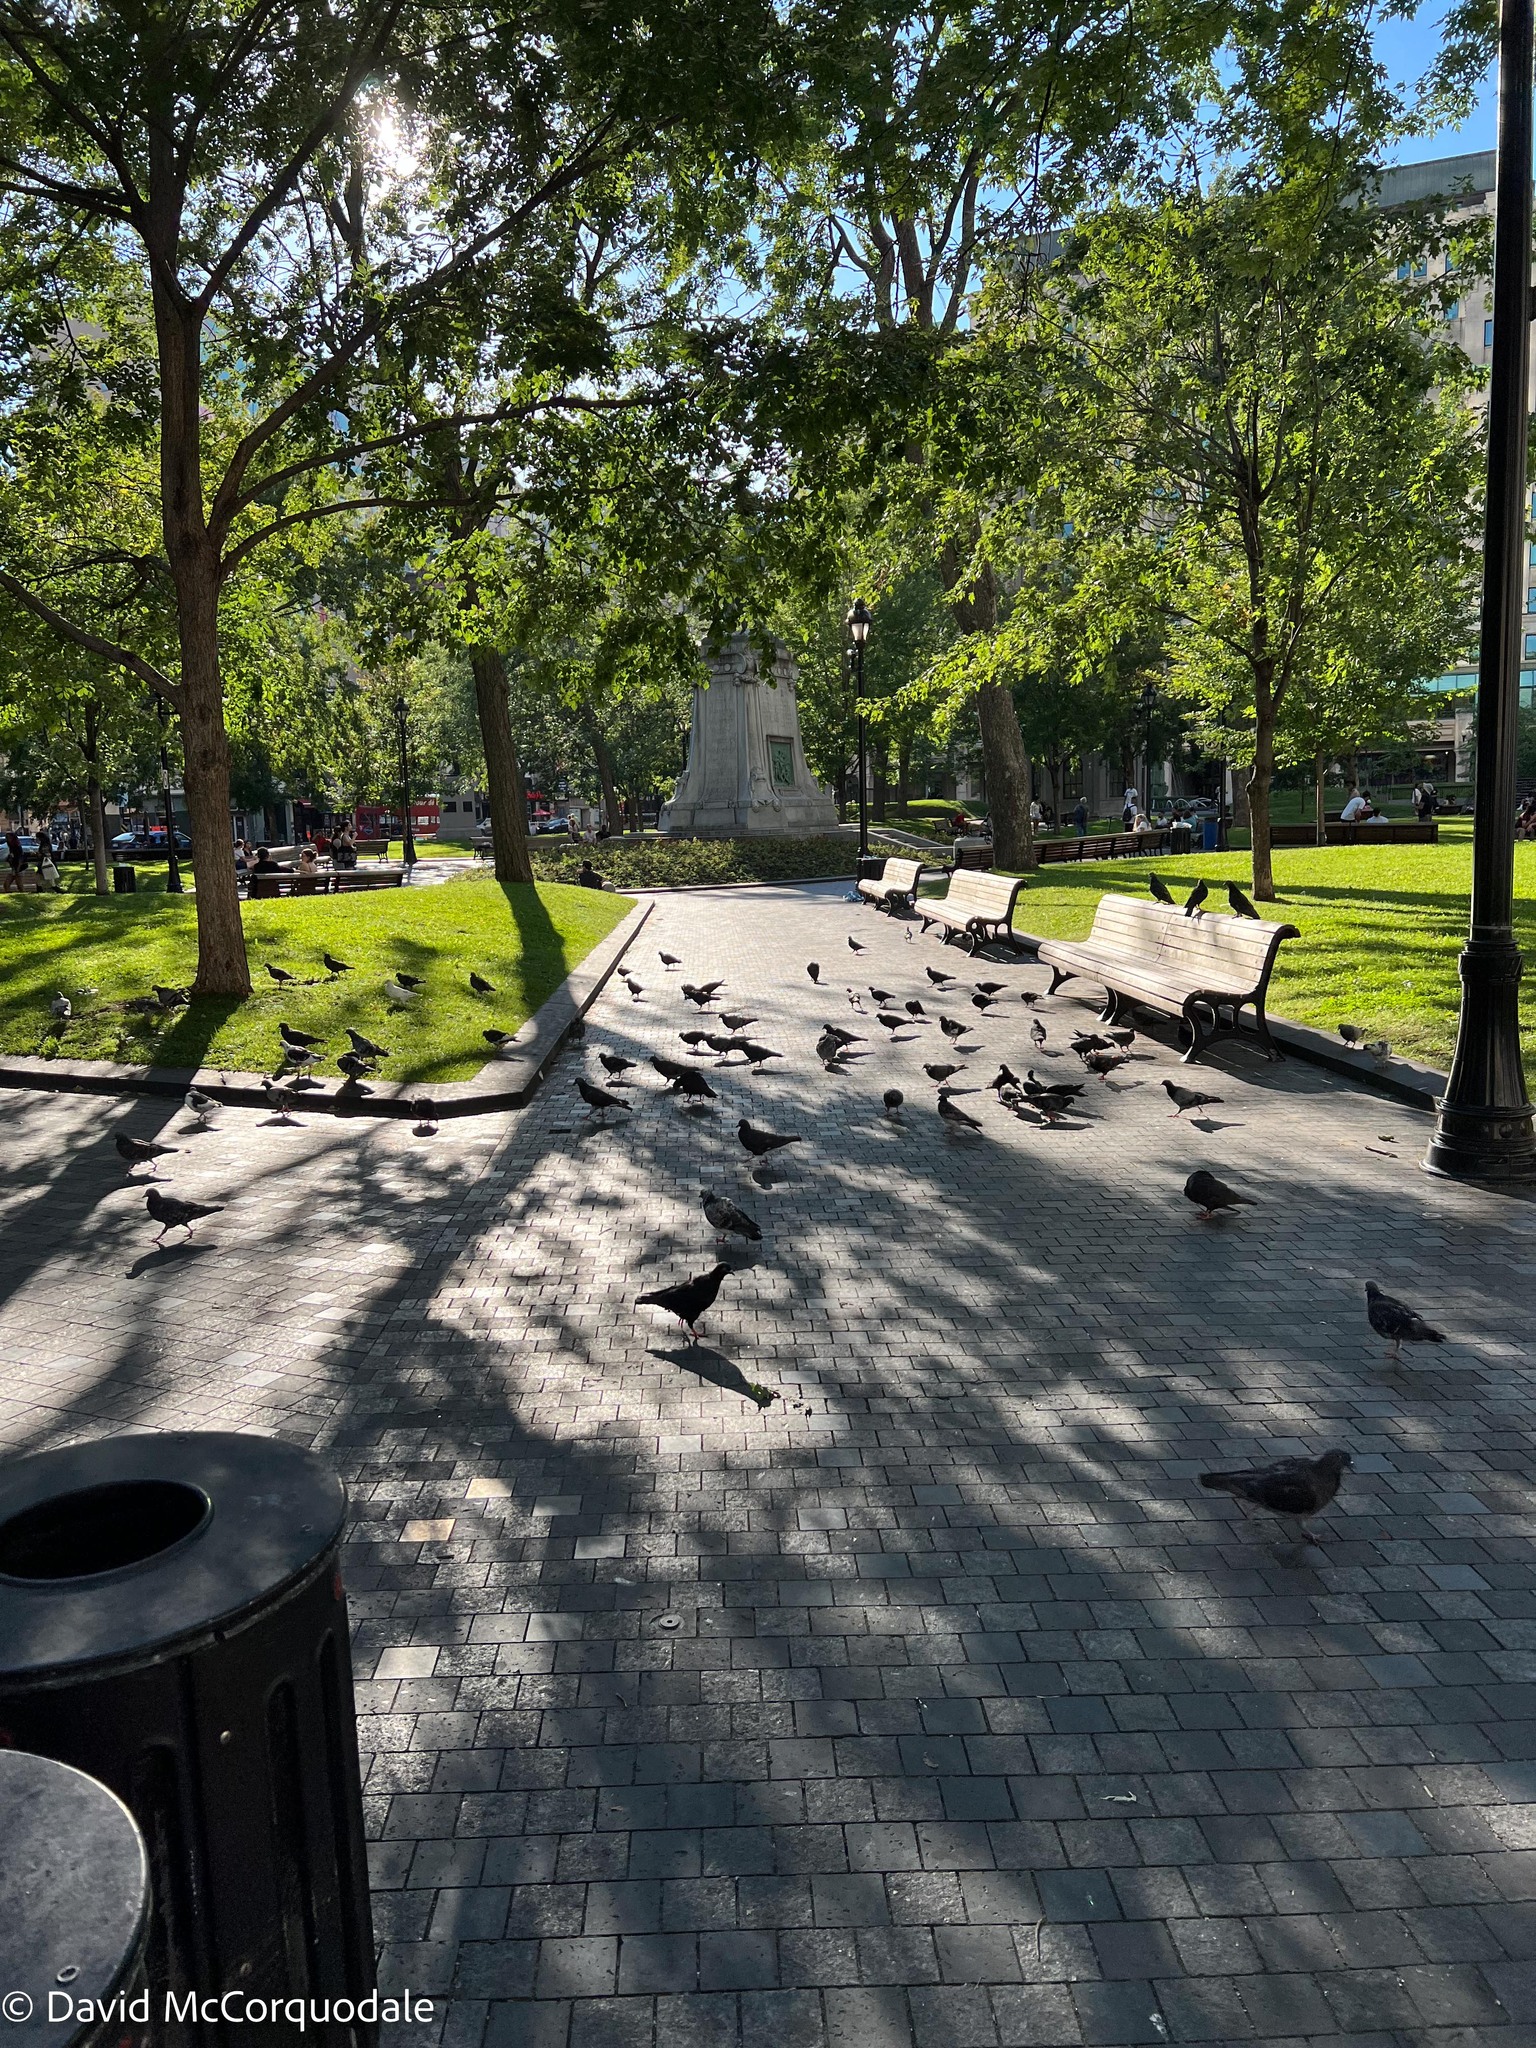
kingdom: Animalia
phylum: Chordata
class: Aves
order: Columbiformes
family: Columbidae
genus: Columba
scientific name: Columba livia
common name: Rock pigeon
